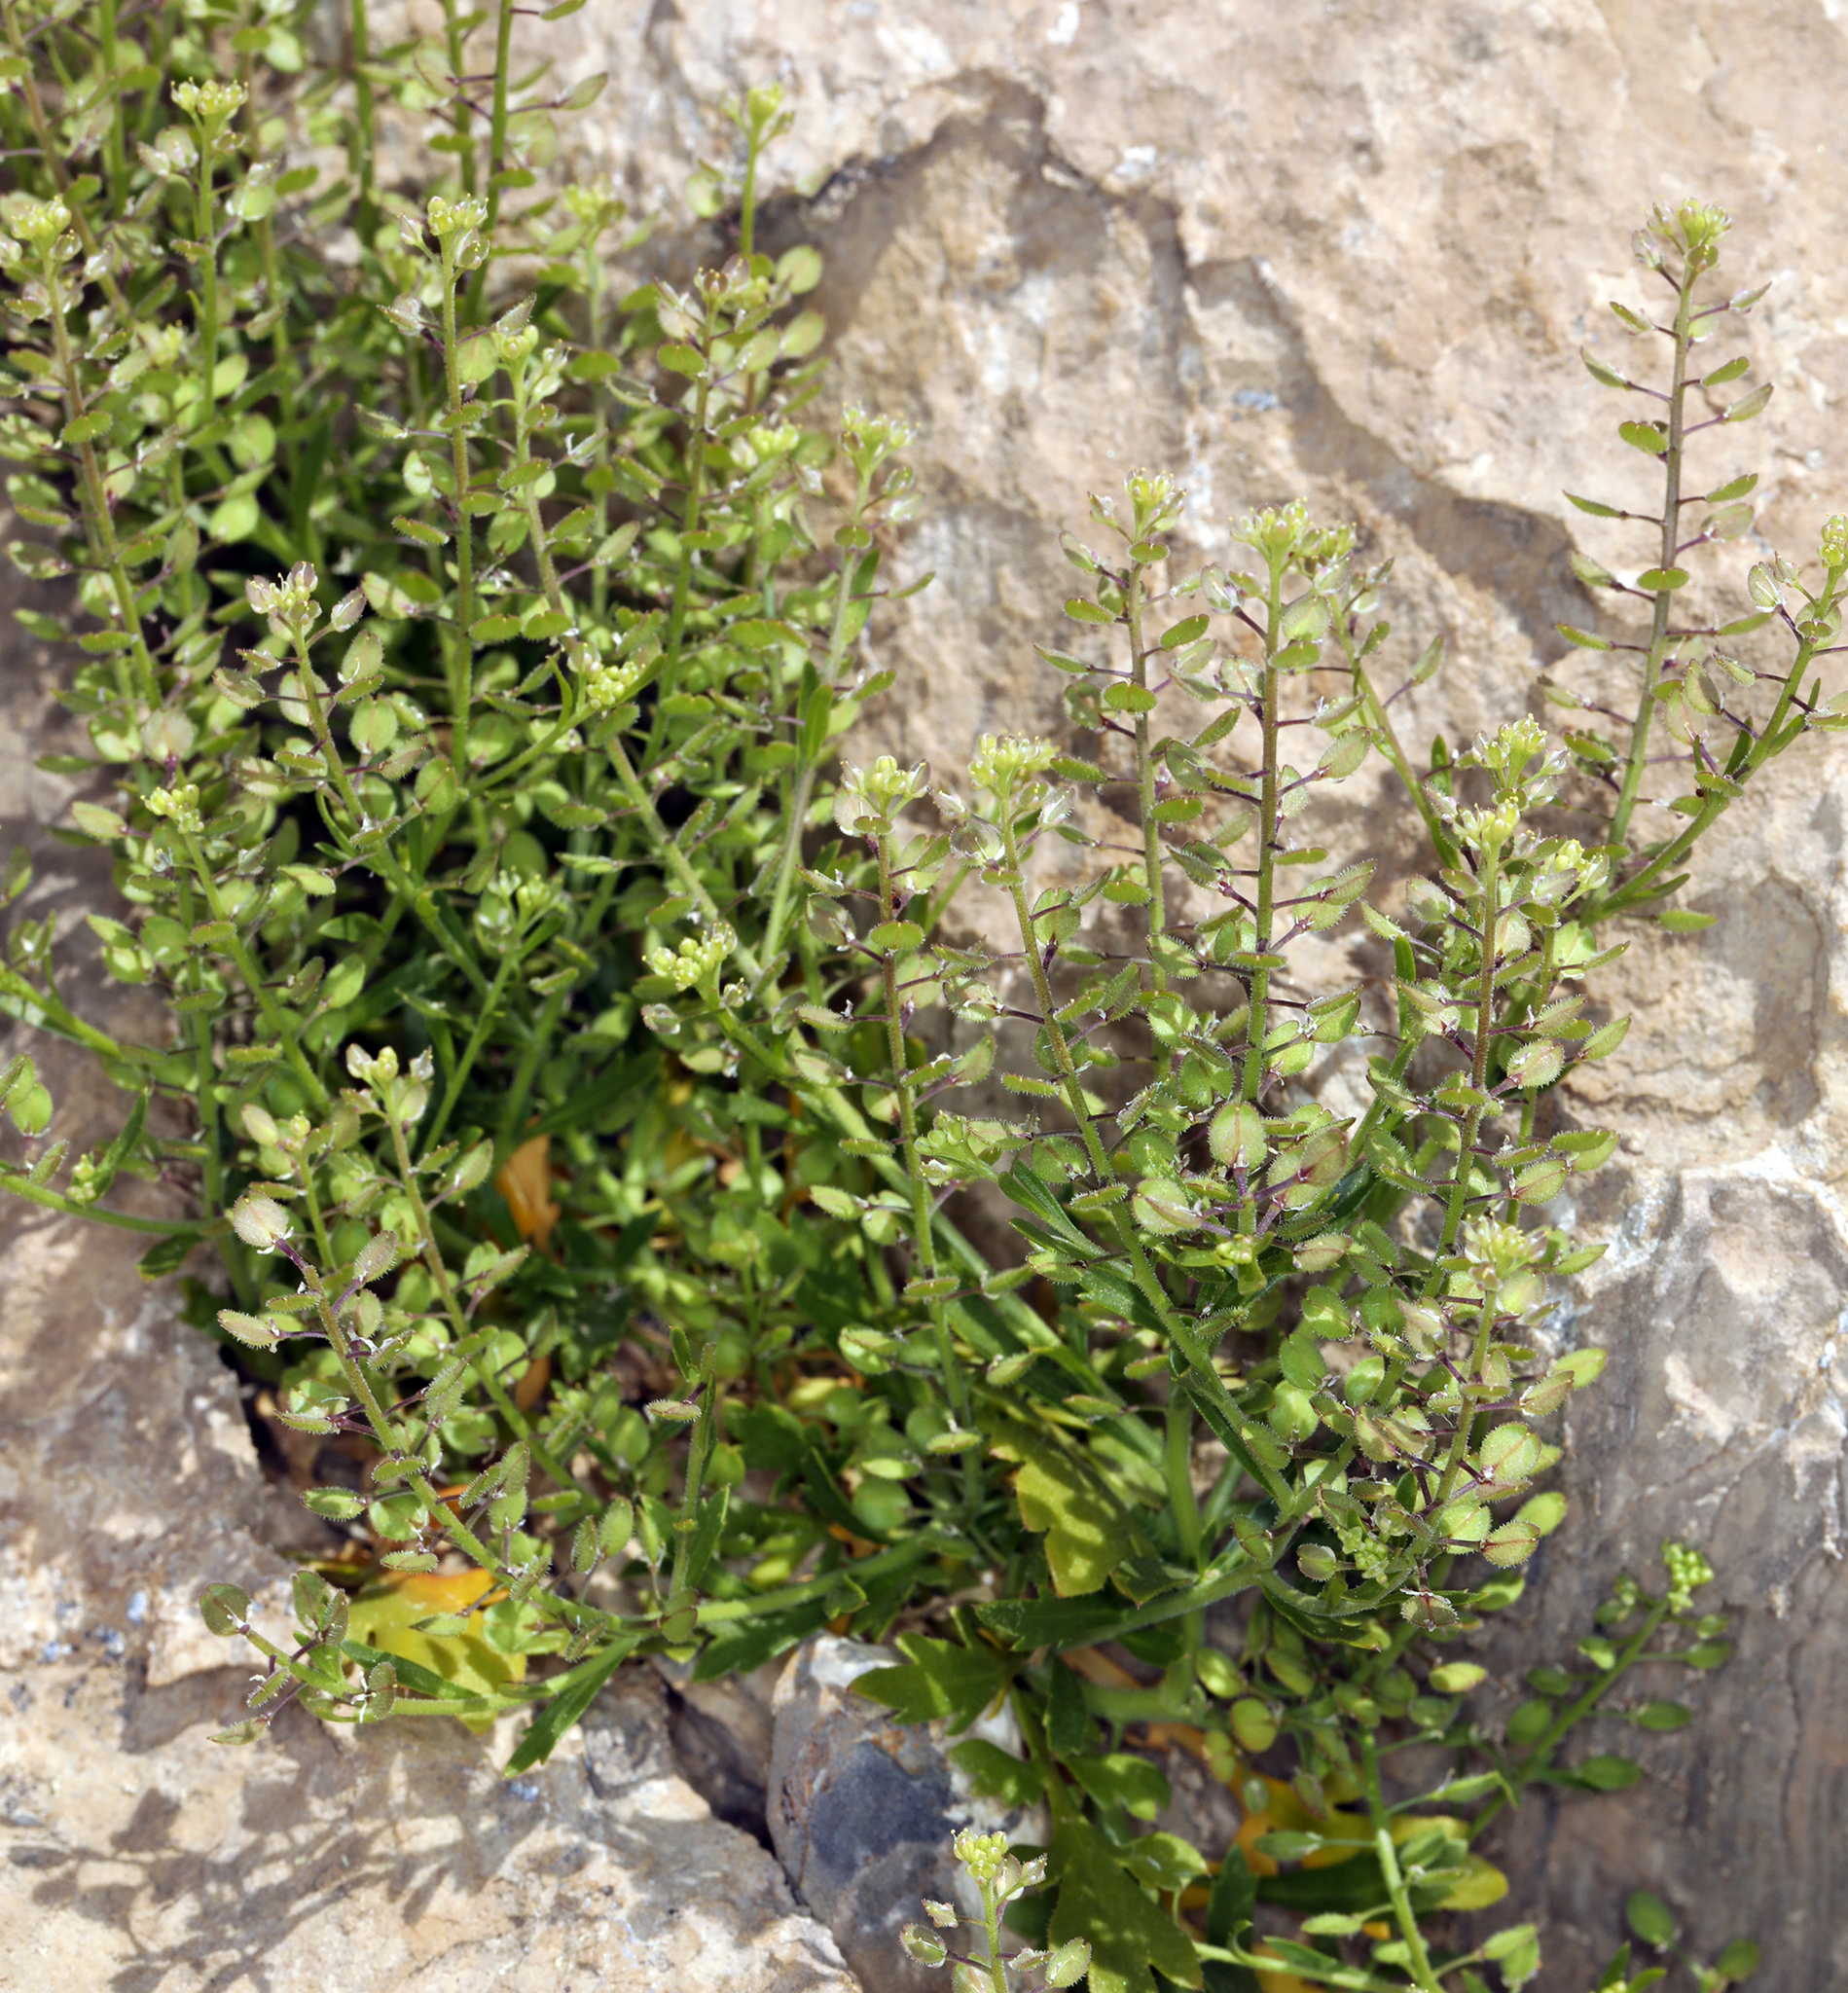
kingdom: Plantae
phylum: Tracheophyta
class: Magnoliopsida
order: Brassicales
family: Brassicaceae
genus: Lepidium
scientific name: Lepidium lasiocarpum
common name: Hairy-pod pepperwort
